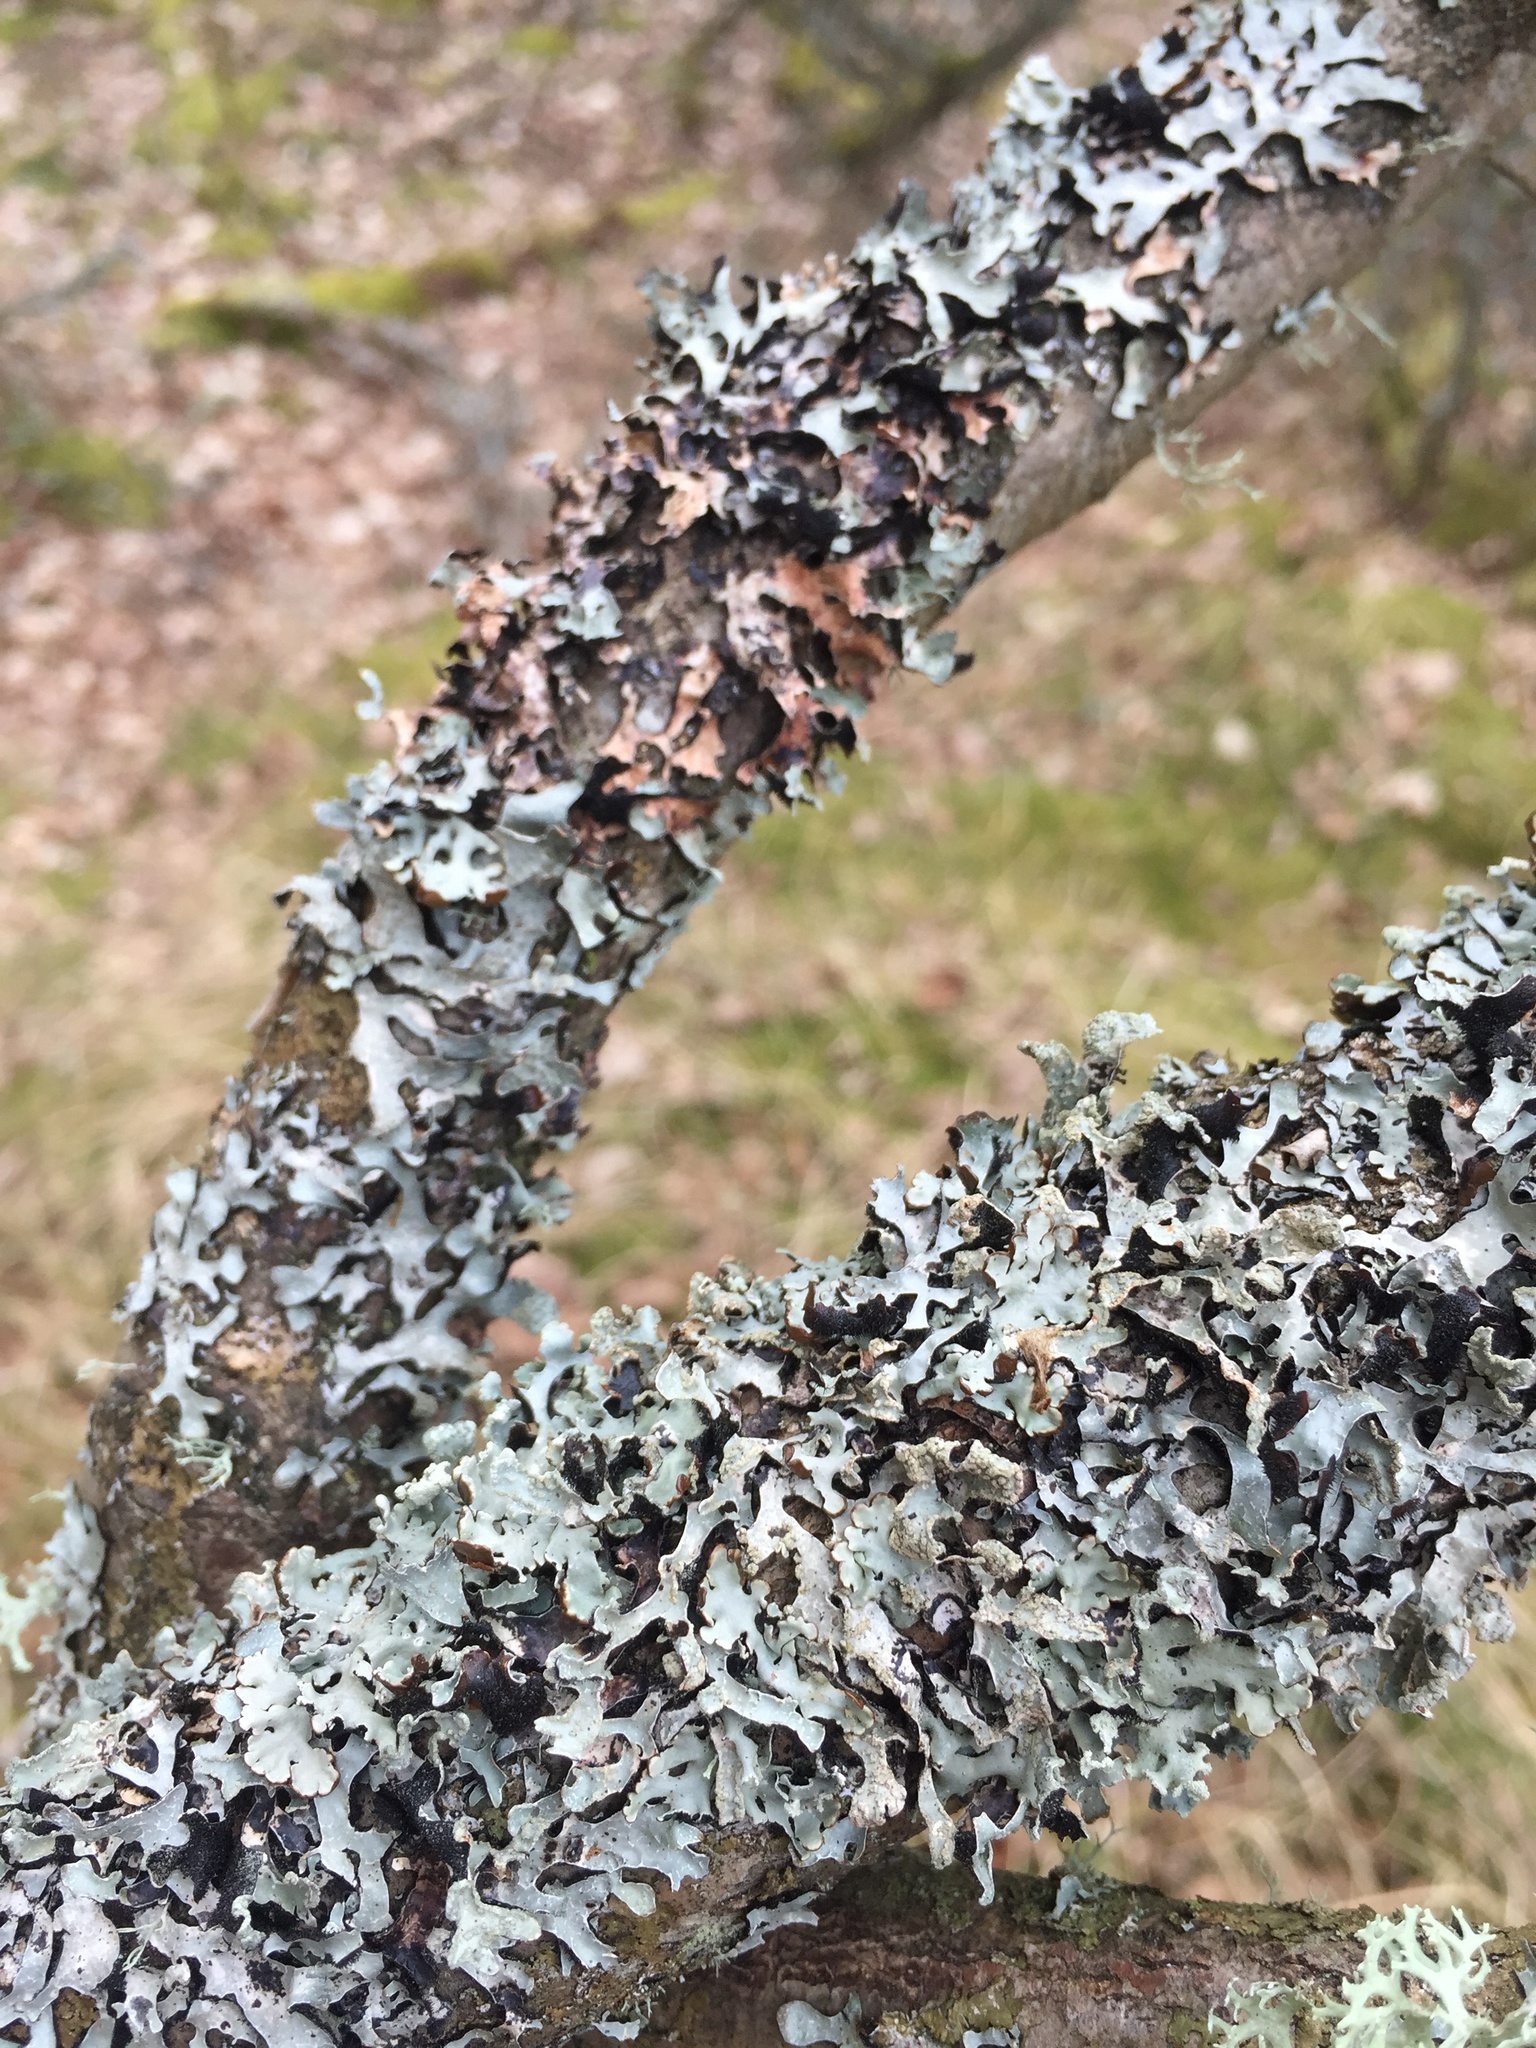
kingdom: Fungi
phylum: Ascomycota
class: Lecanoromycetes
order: Lecanorales
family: Parmeliaceae
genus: Parmelia
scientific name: Parmelia sulcata
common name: Netted shield lichen
